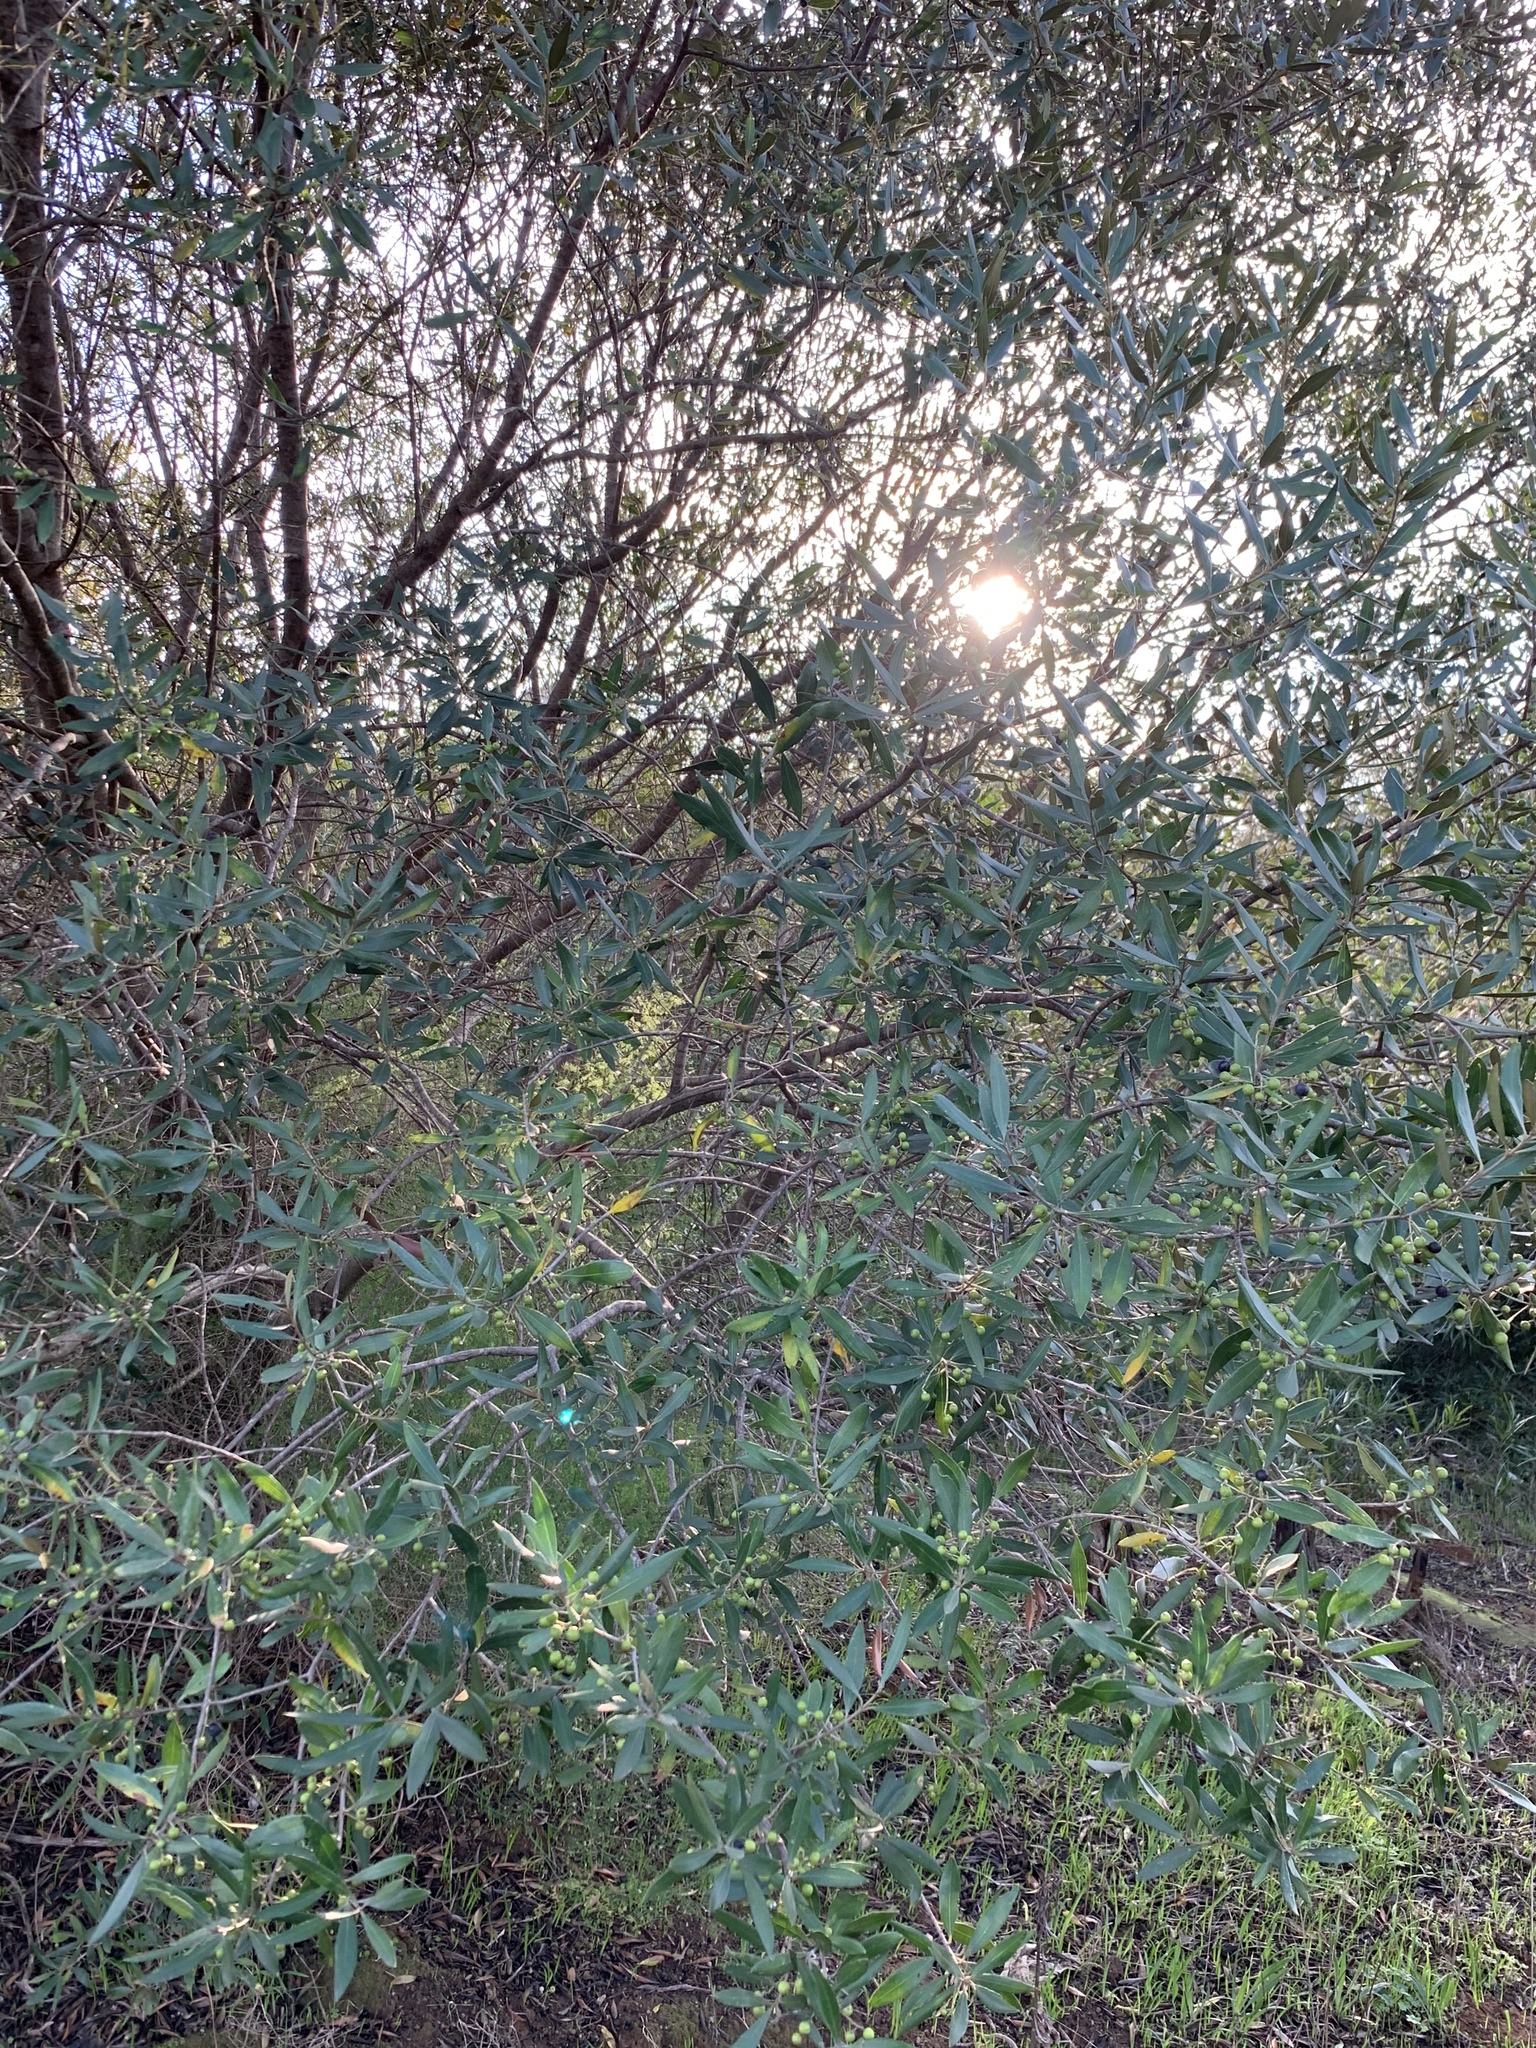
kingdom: Plantae
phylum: Tracheophyta
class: Magnoliopsida
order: Lamiales
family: Oleaceae
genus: Olea
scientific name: Olea europaea
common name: Olive
